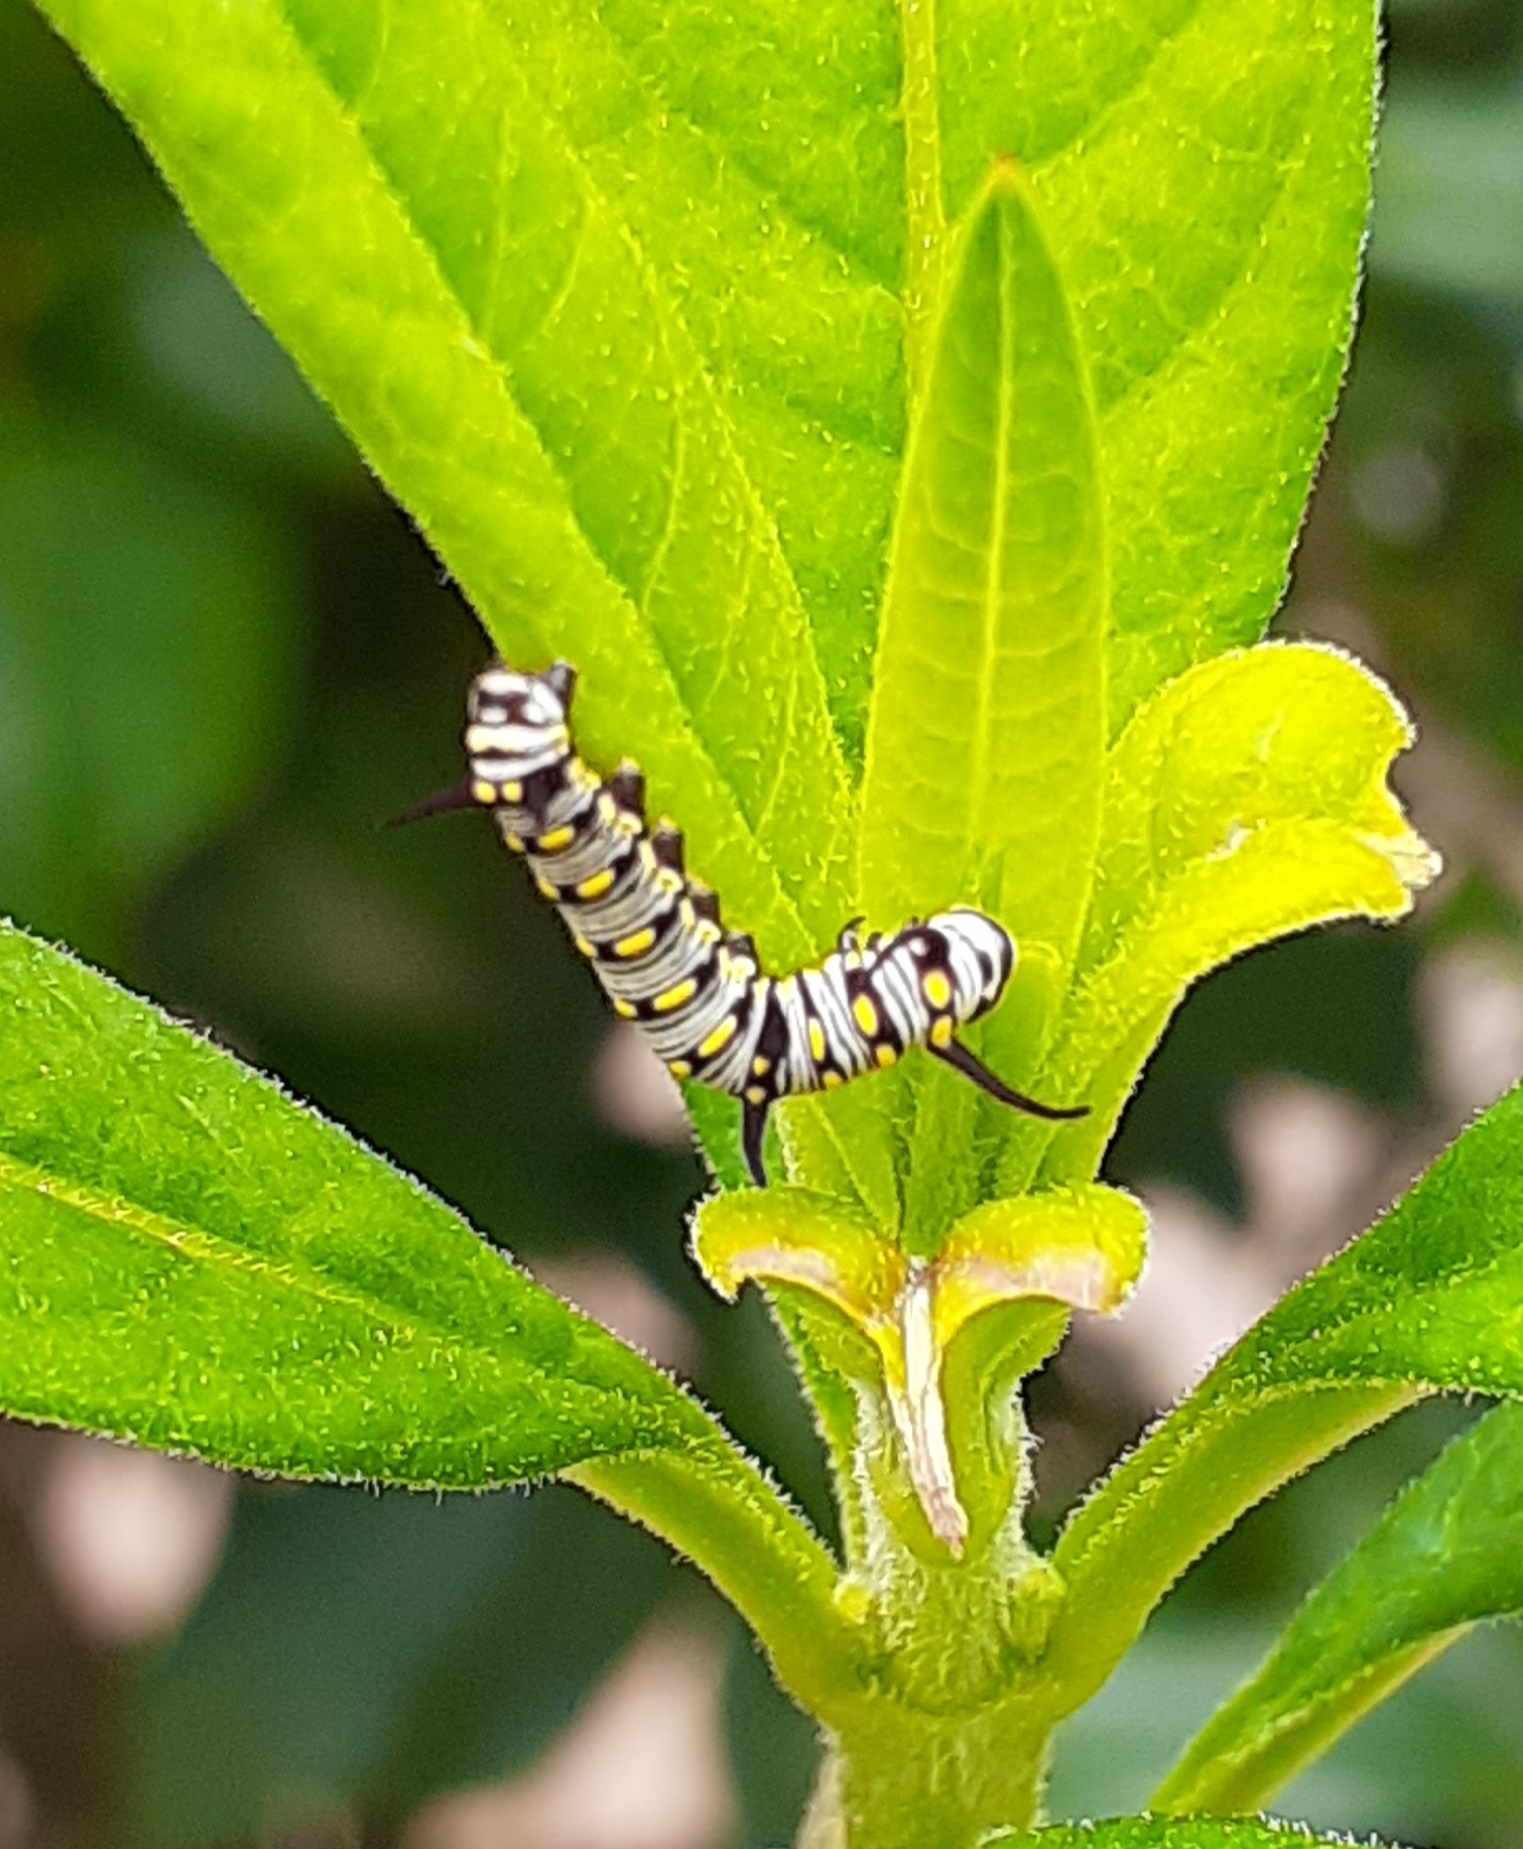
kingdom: Animalia
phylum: Arthropoda
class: Insecta
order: Lepidoptera
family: Nymphalidae
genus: Danaus
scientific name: Danaus chrysippus
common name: Plain tiger
